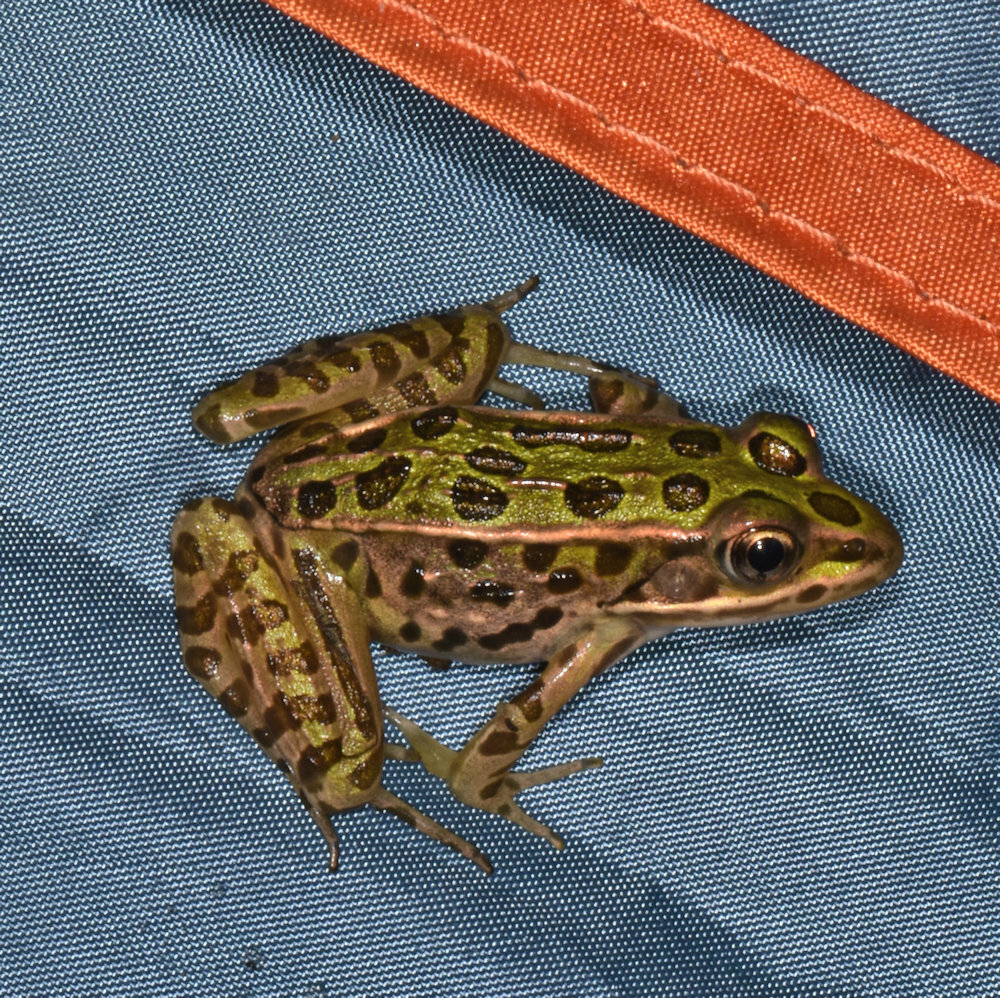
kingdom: Animalia
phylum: Chordata
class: Amphibia
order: Anura
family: Ranidae
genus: Lithobates
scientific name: Lithobates pipiens
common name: Northern leopard frog
